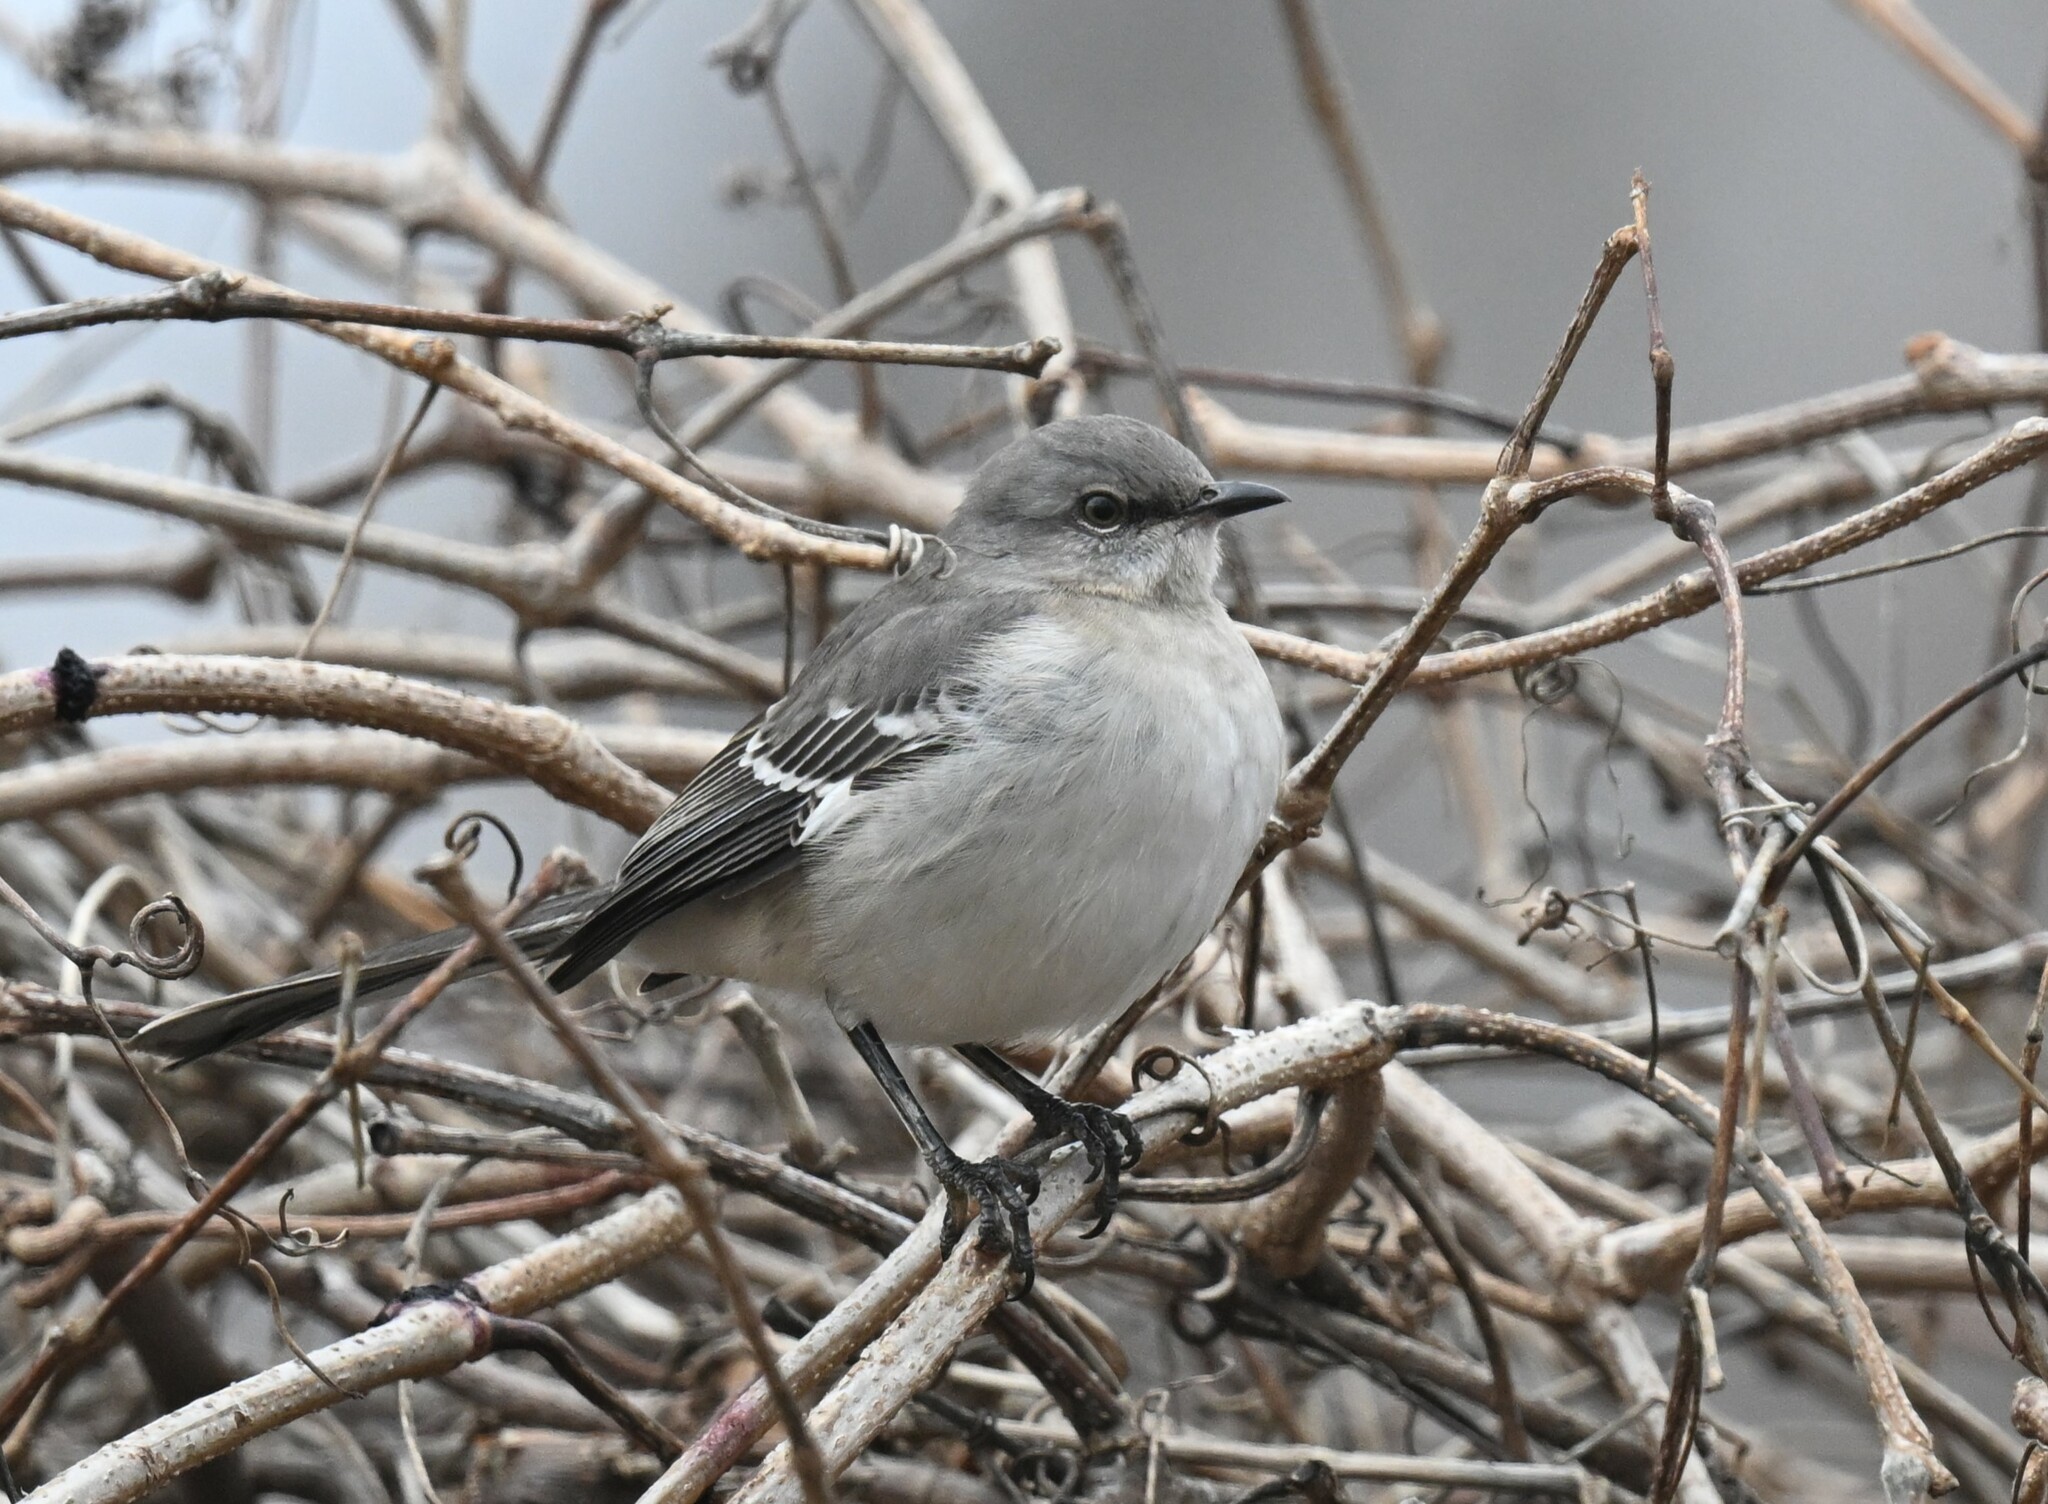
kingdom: Animalia
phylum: Chordata
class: Aves
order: Passeriformes
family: Mimidae
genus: Mimus
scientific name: Mimus polyglottos
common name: Northern mockingbird
